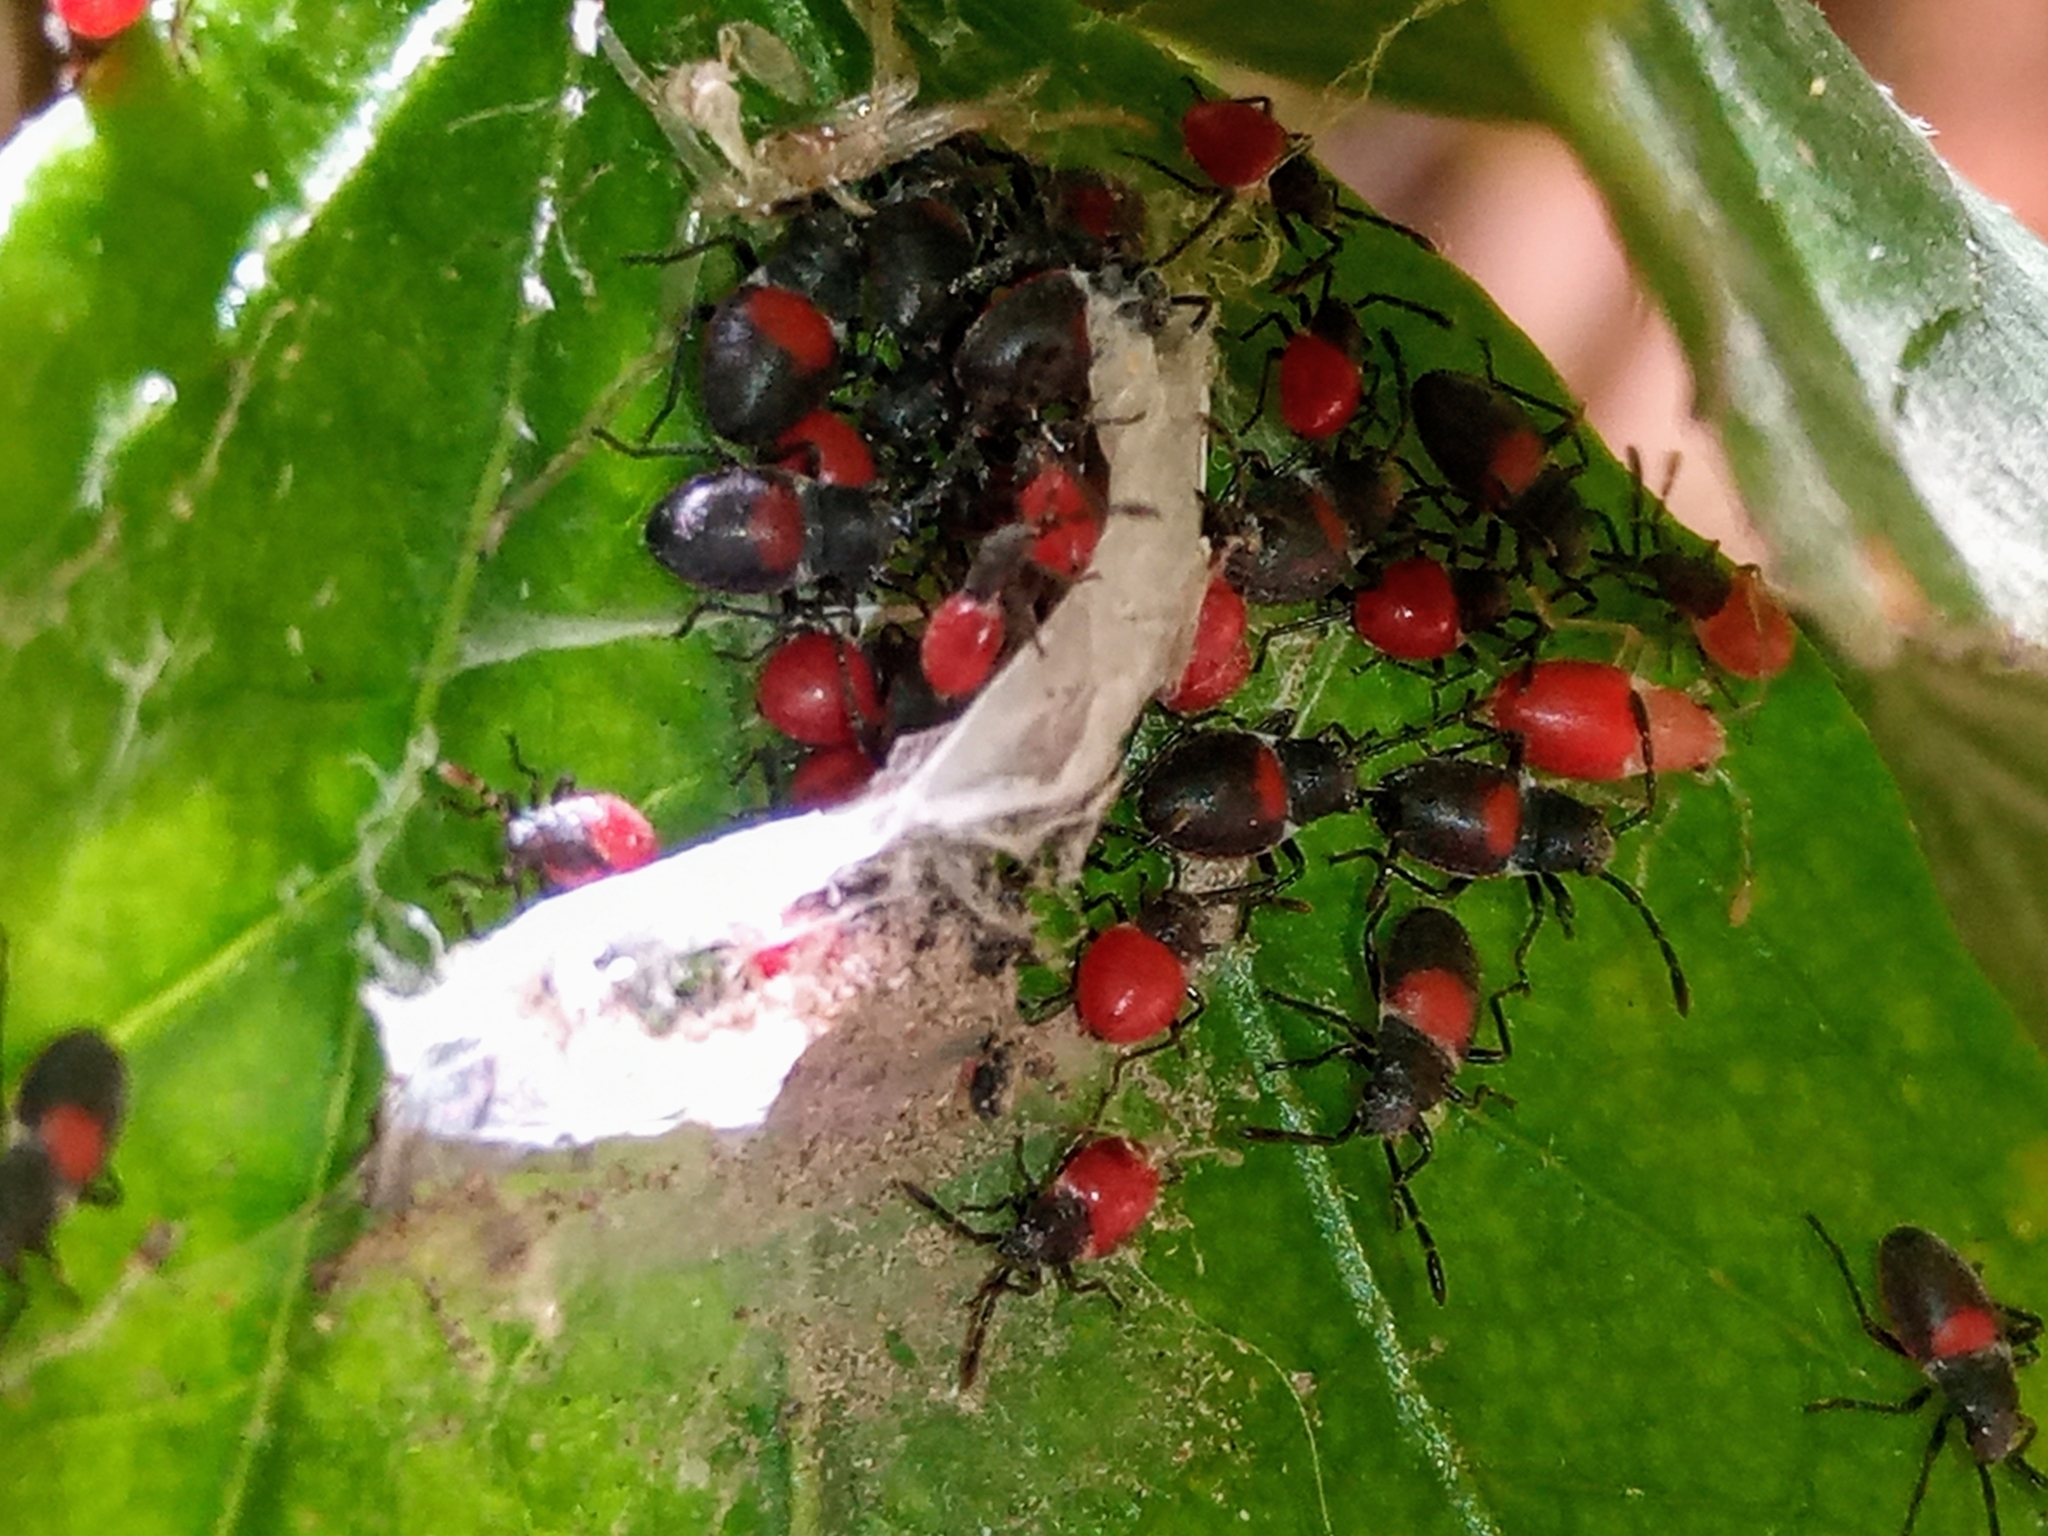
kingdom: Animalia
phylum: Arthropoda
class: Insecta
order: Hemiptera
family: Largidae
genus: Stenomacra
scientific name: Stenomacra marginella
